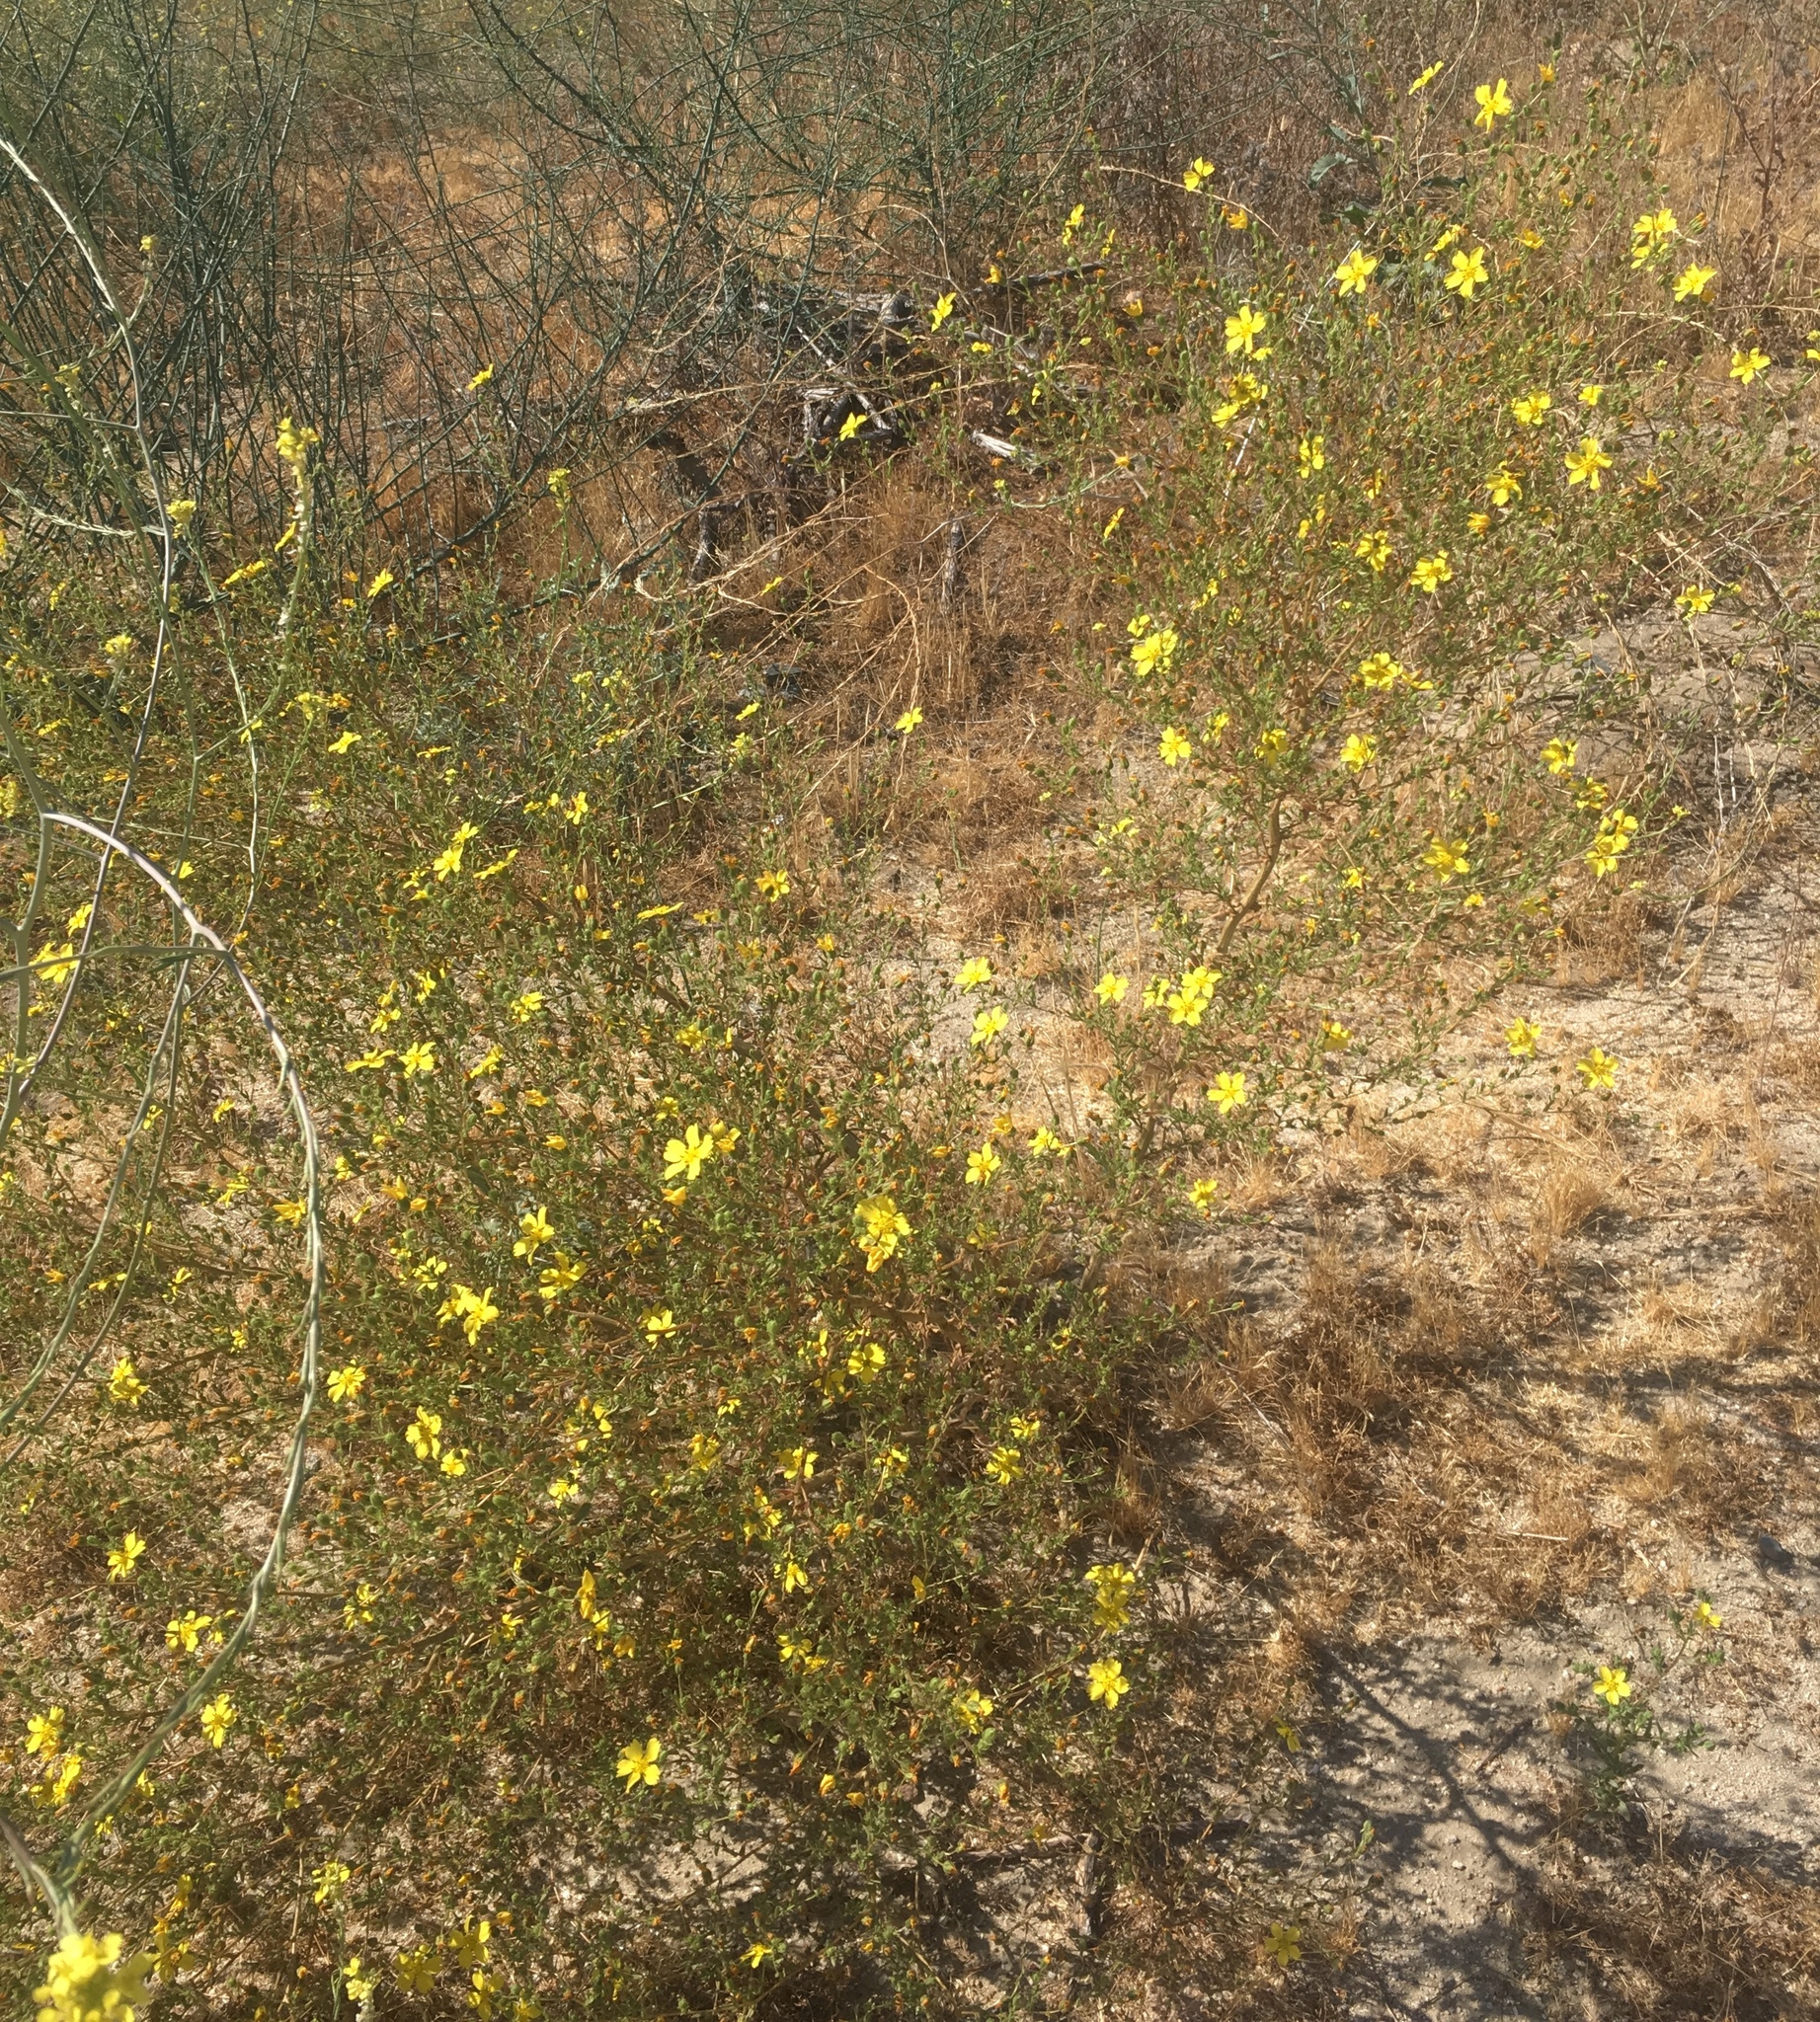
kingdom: Plantae
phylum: Tracheophyta
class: Magnoliopsida
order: Asterales
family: Asteraceae
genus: Deinandra
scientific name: Deinandra kelloggii
